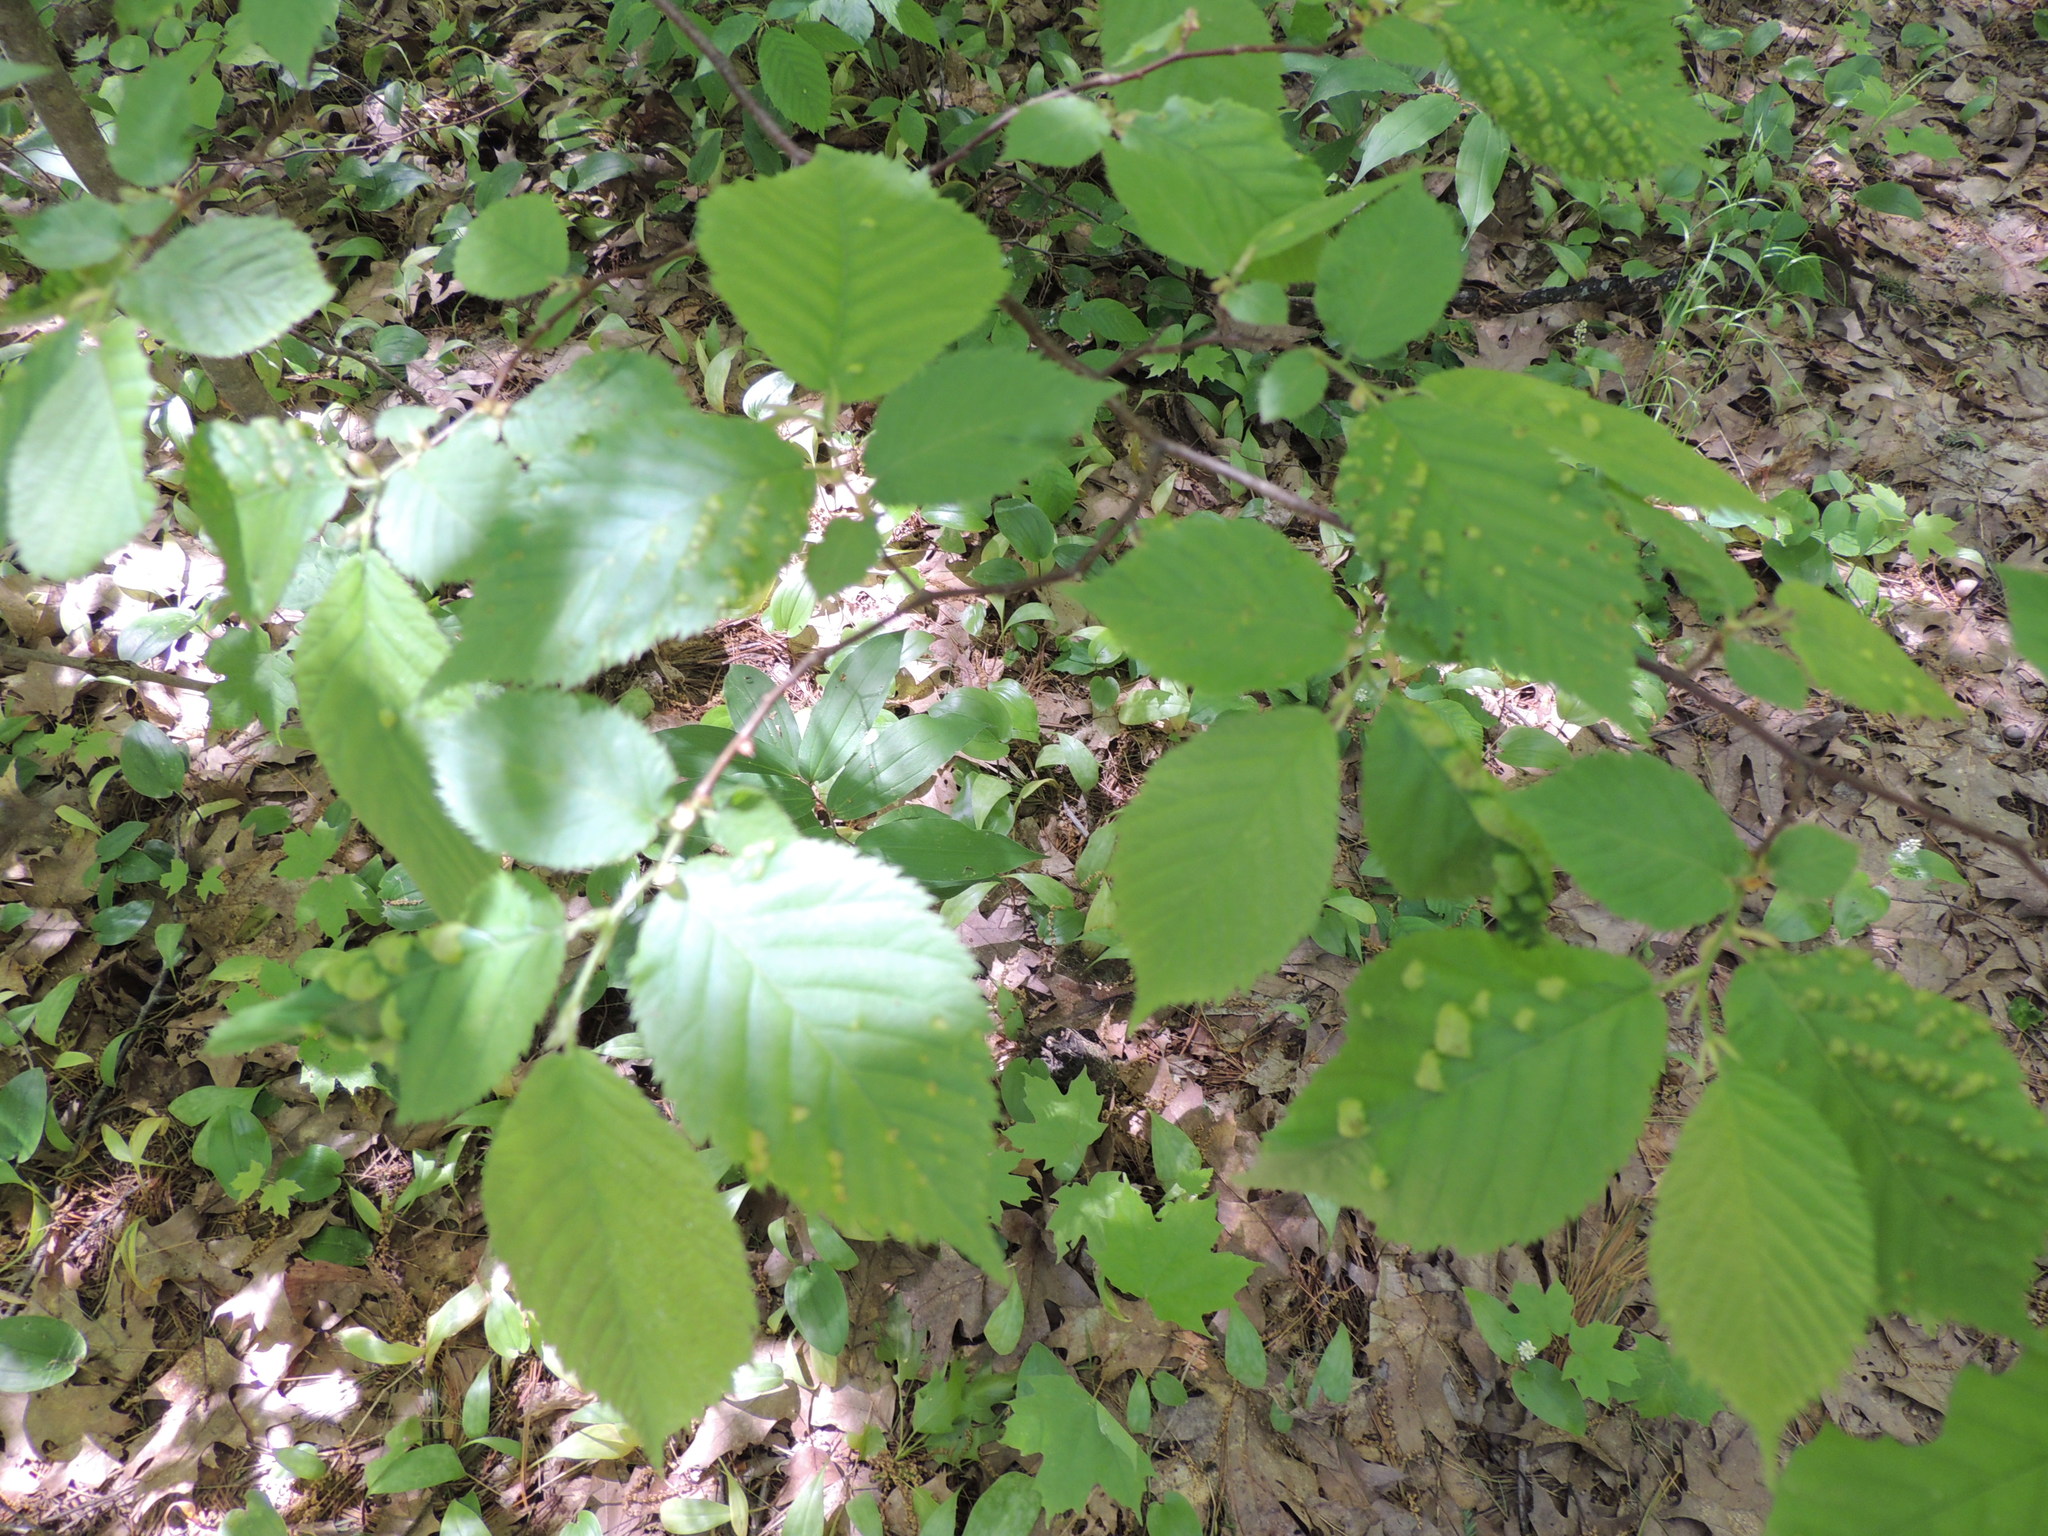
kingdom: Plantae
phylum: Tracheophyta
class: Magnoliopsida
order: Fagales
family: Betulaceae
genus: Ostrya
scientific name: Ostrya virginiana
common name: Ironwood
